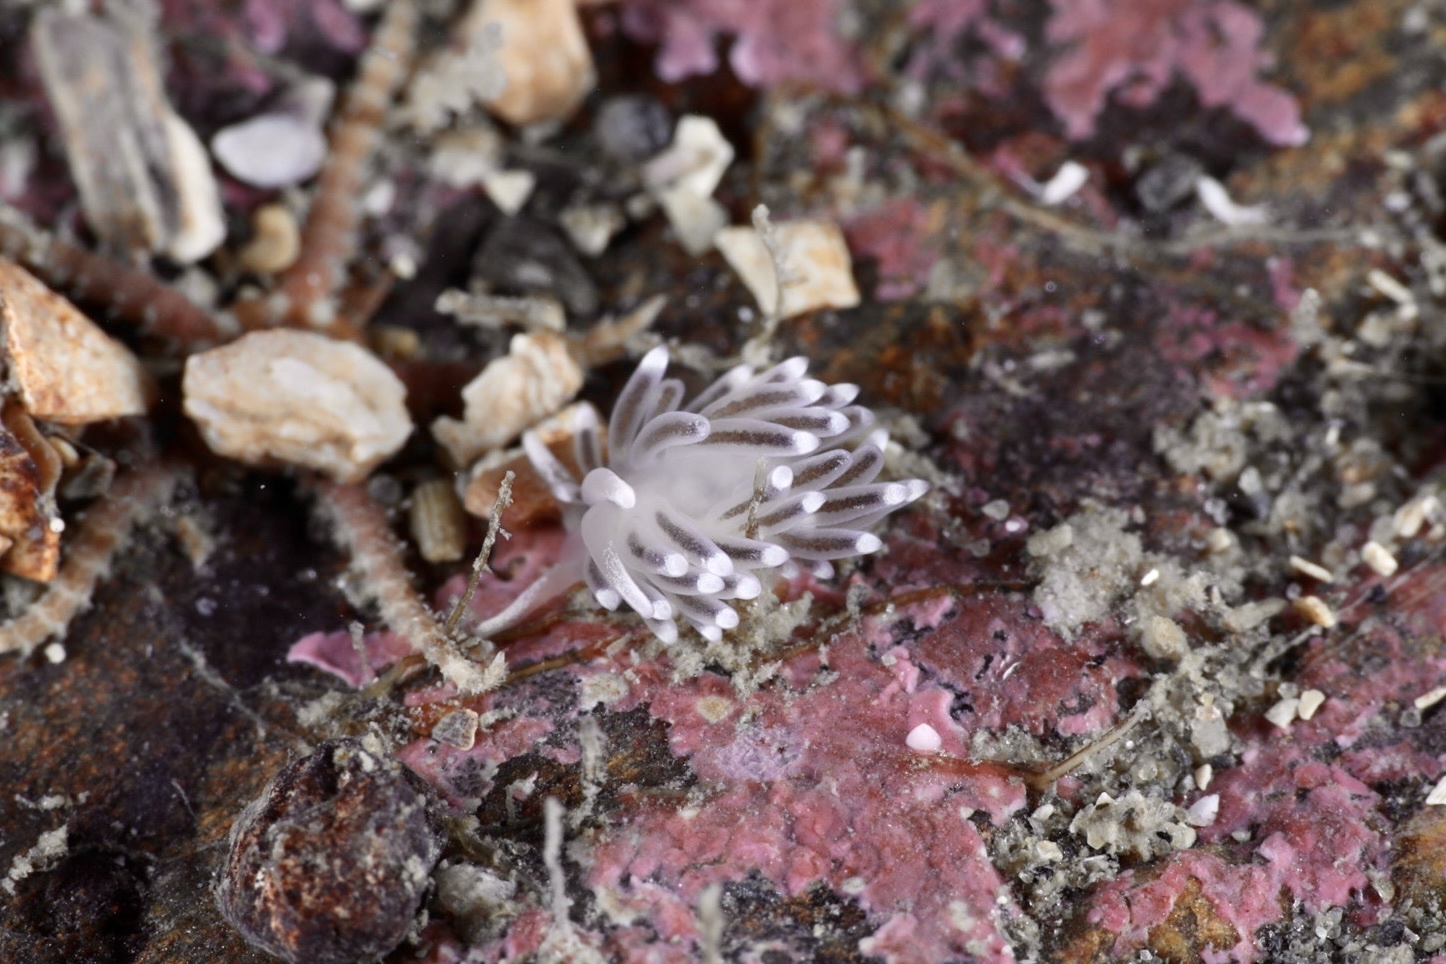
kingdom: Animalia
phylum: Mollusca
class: Gastropoda
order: Nudibranchia
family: Cuthonellidae
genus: Cuthonella
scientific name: Cuthonella concinna
